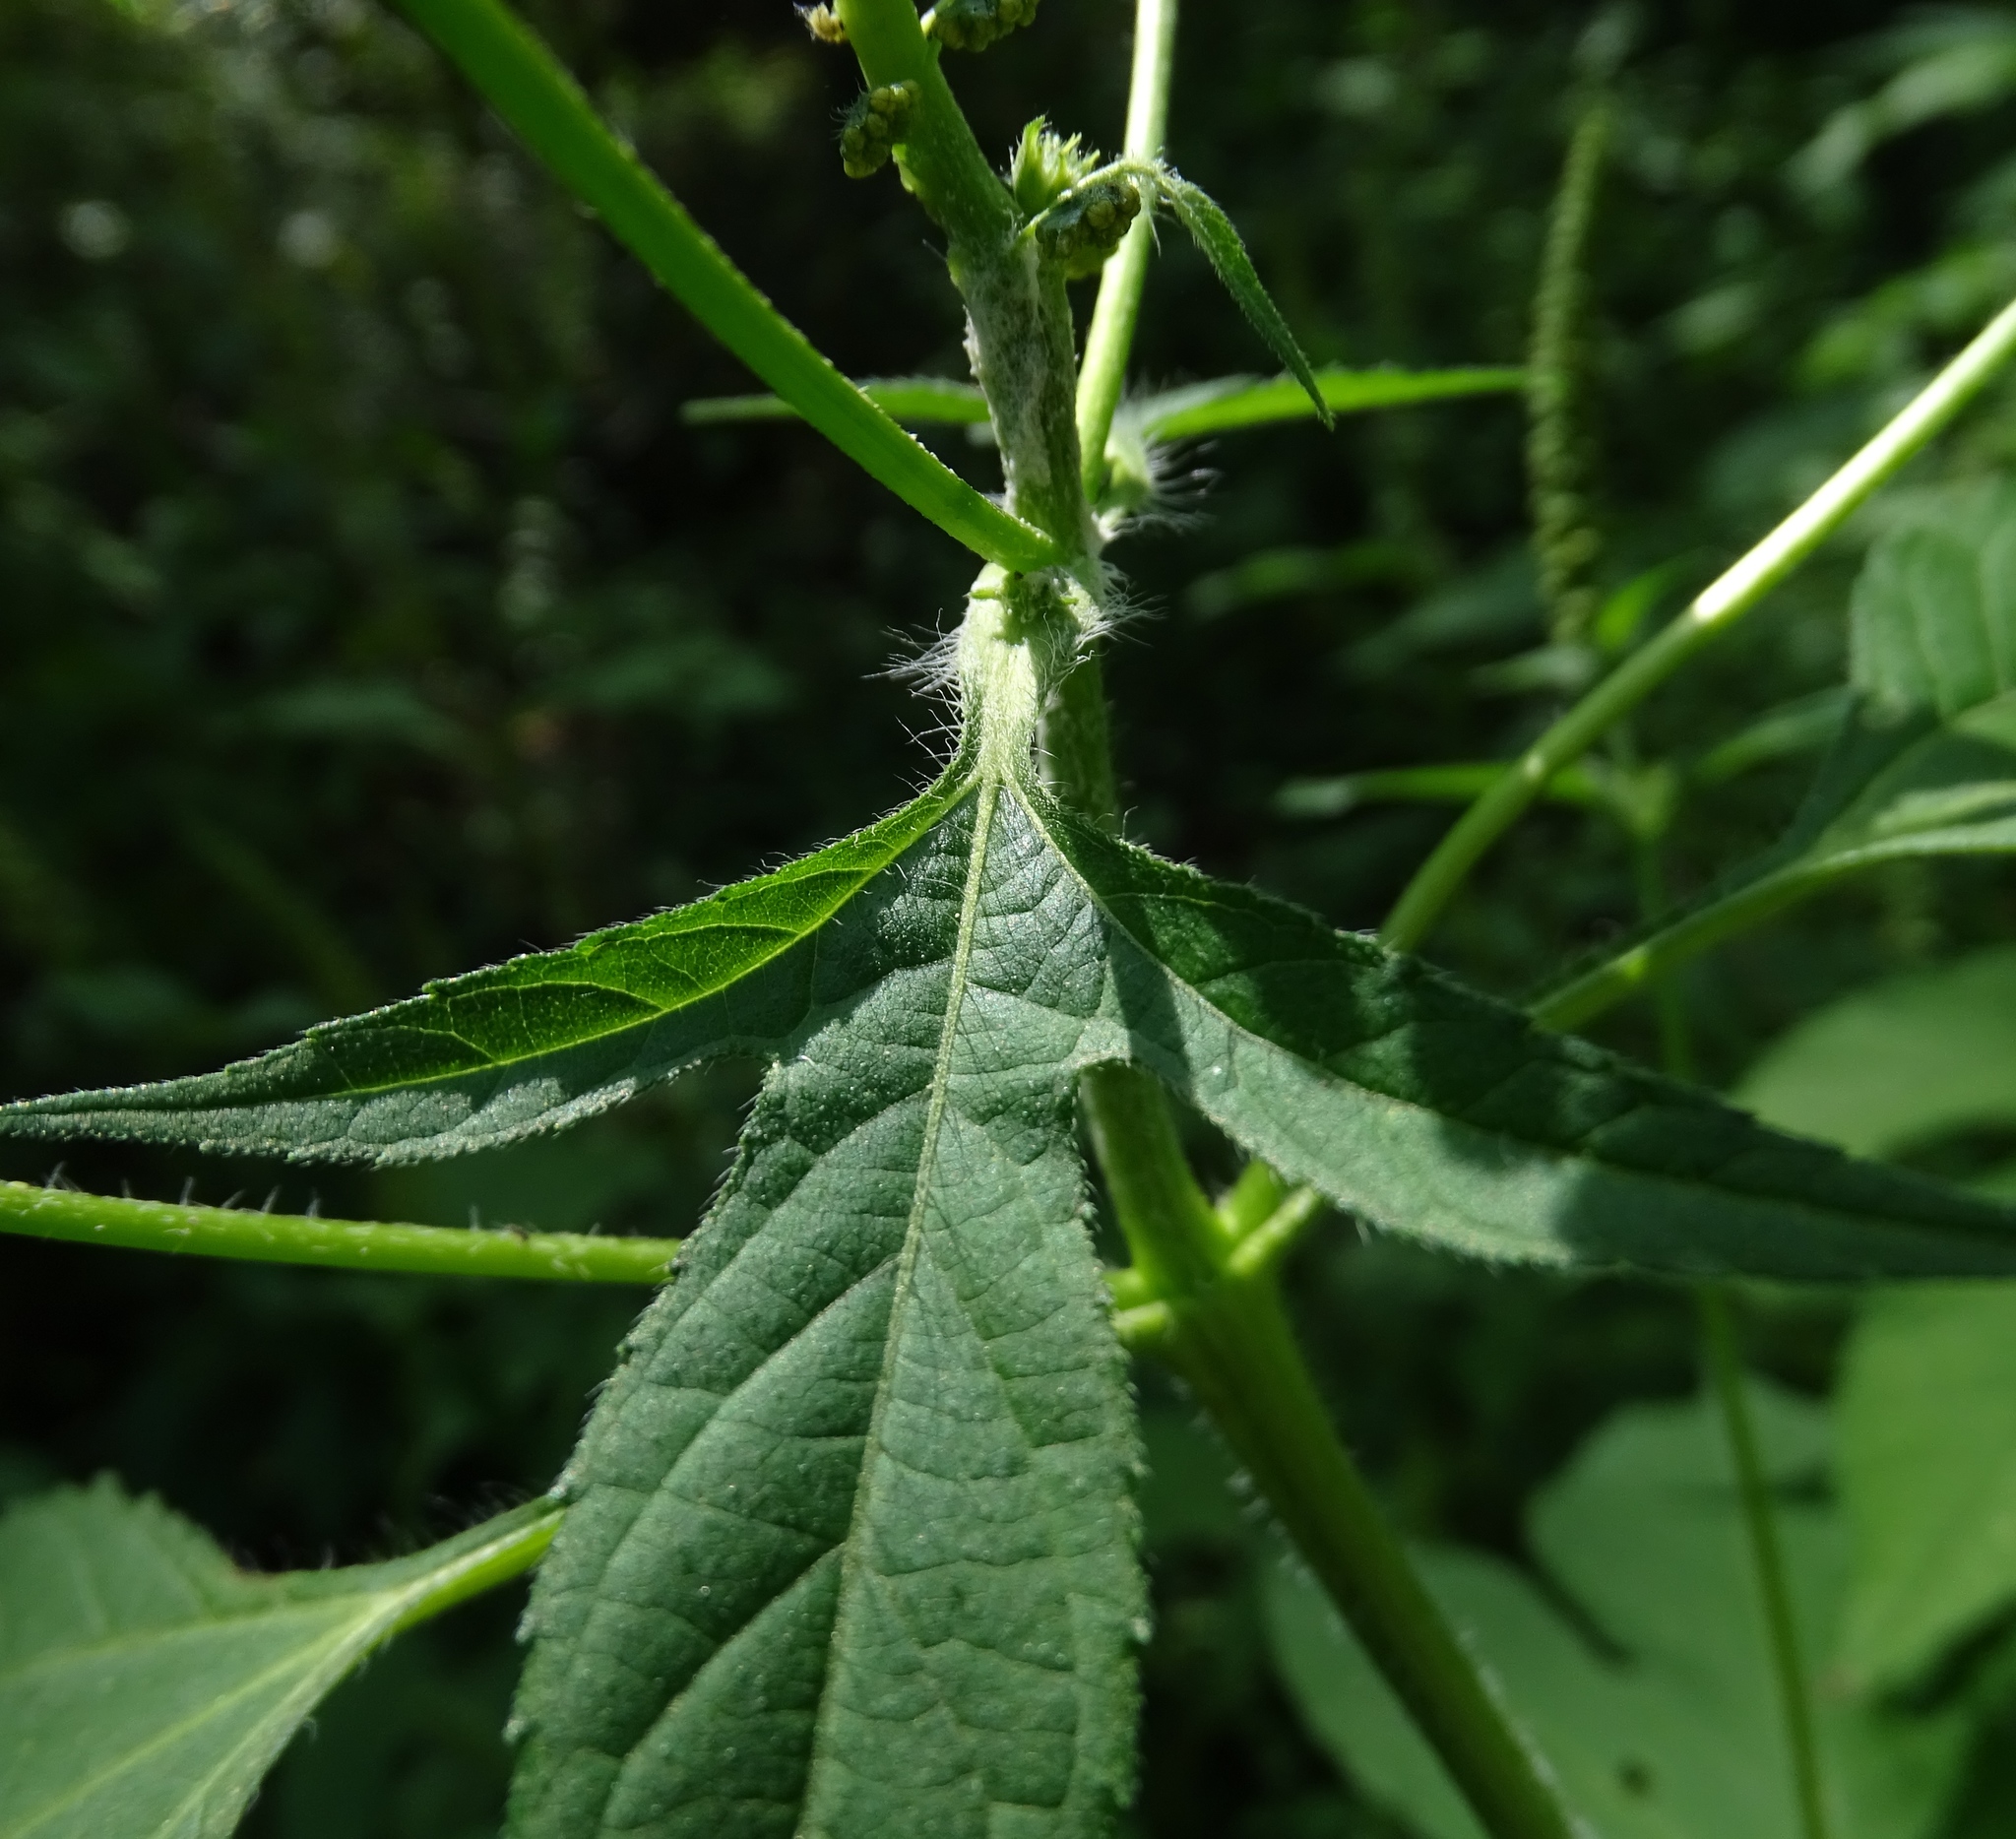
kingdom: Plantae
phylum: Tracheophyta
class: Magnoliopsida
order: Asterales
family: Asteraceae
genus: Ambrosia
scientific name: Ambrosia trifida
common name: Giant ragweed
